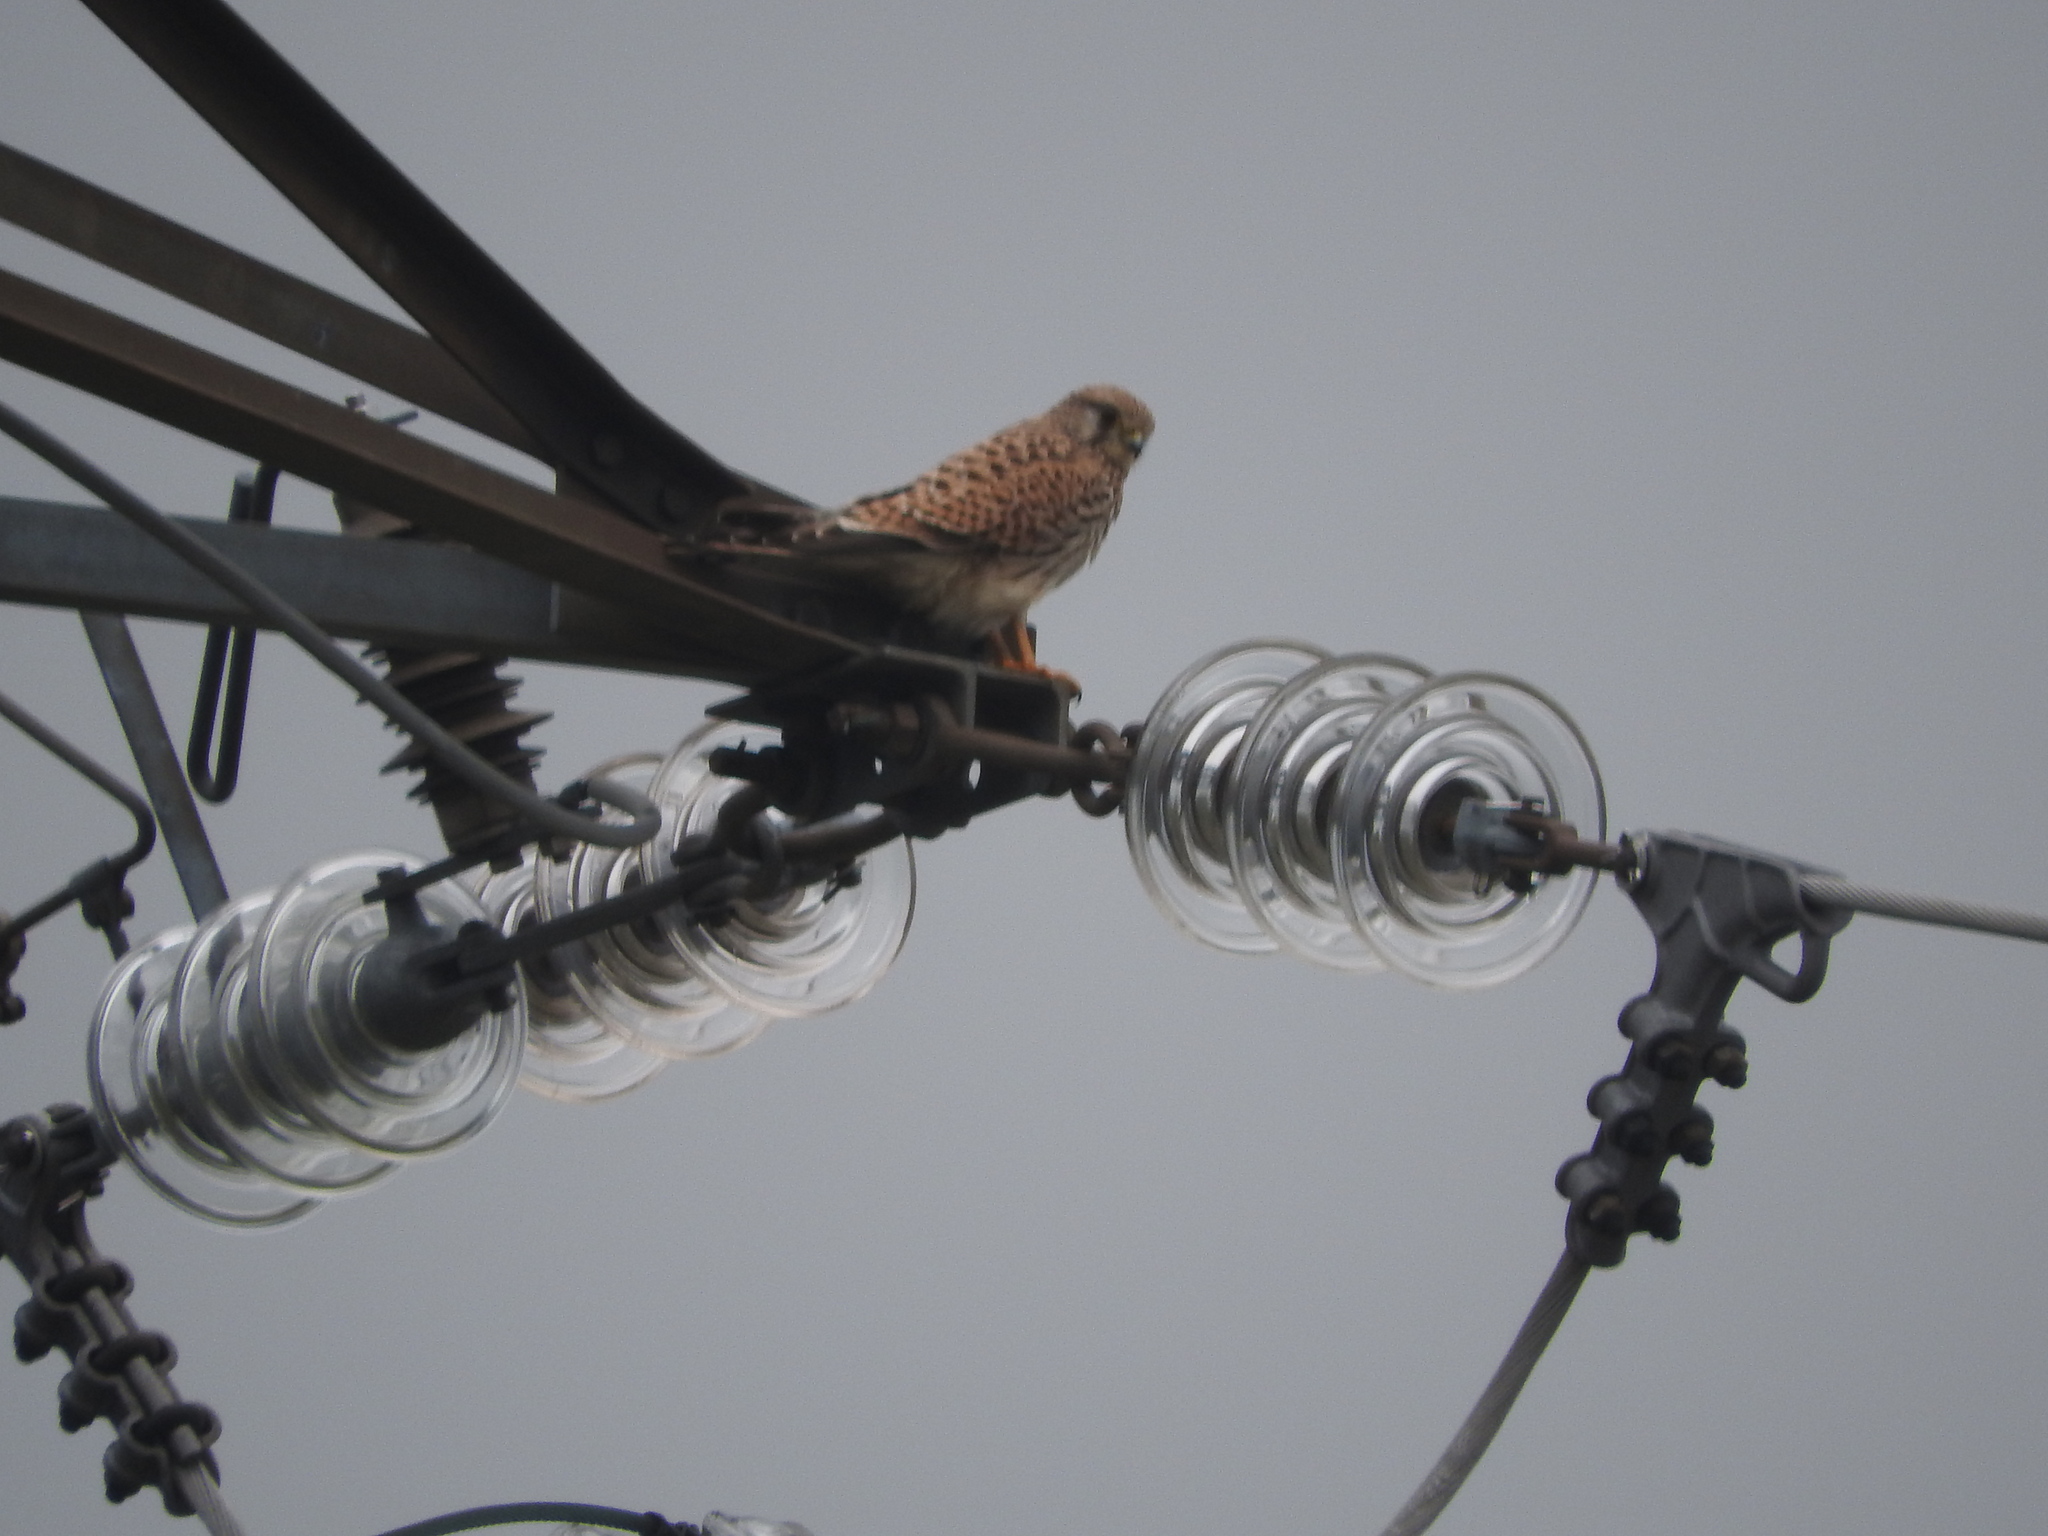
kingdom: Animalia
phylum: Chordata
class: Aves
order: Falconiformes
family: Falconidae
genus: Falco
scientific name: Falco tinnunculus
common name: Common kestrel
